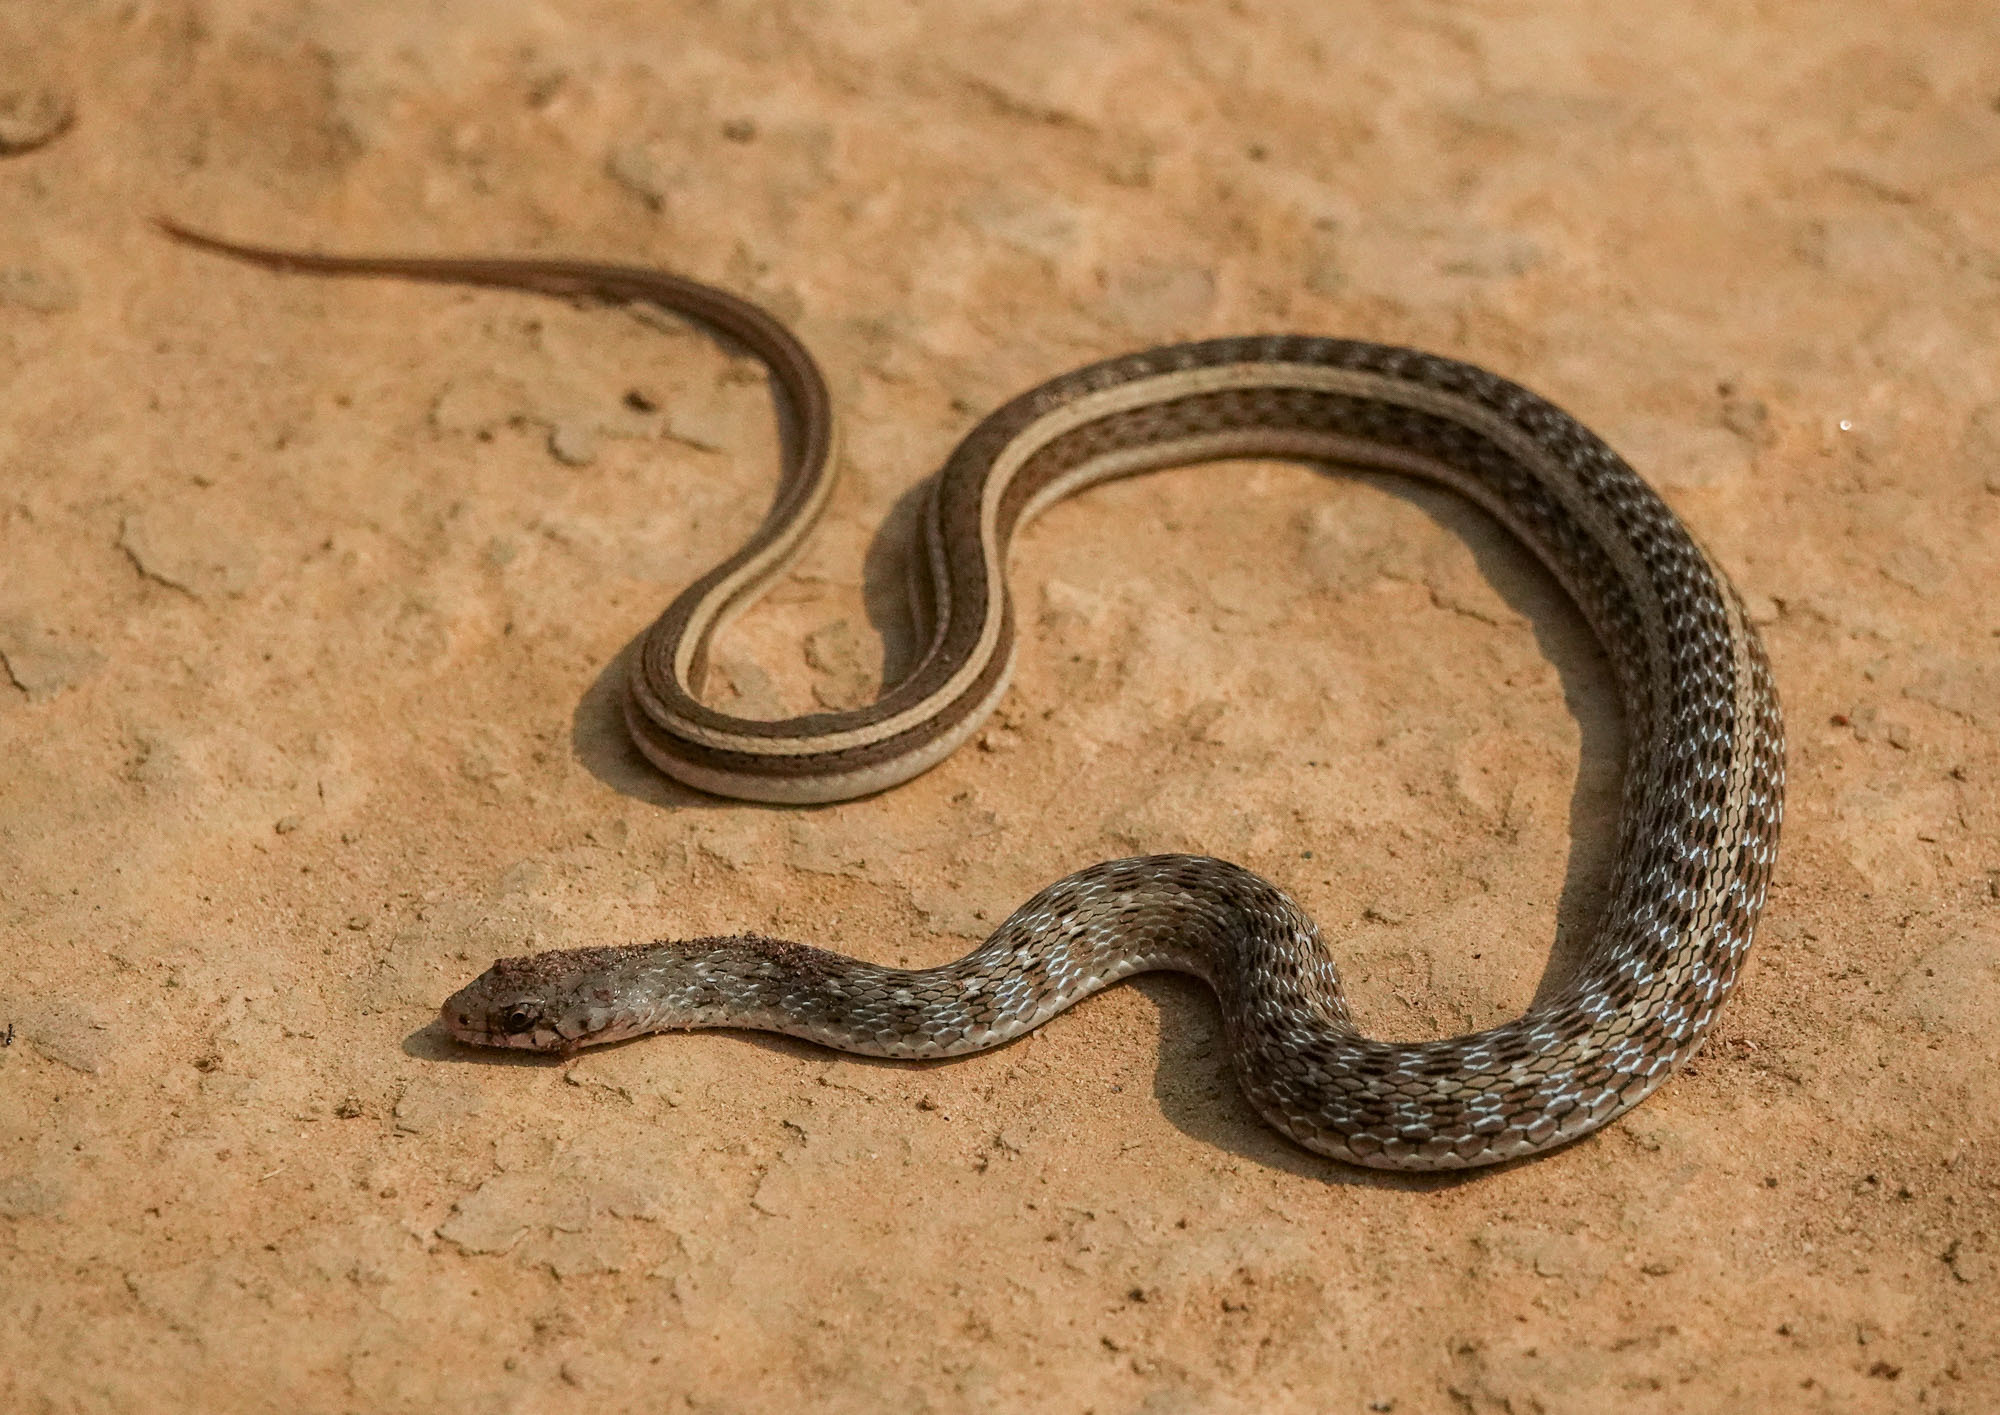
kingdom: Animalia
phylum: Chordata
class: Squamata
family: Colubridae
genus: Amphiesma
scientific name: Amphiesma stolatum
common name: Buff striped keelback
